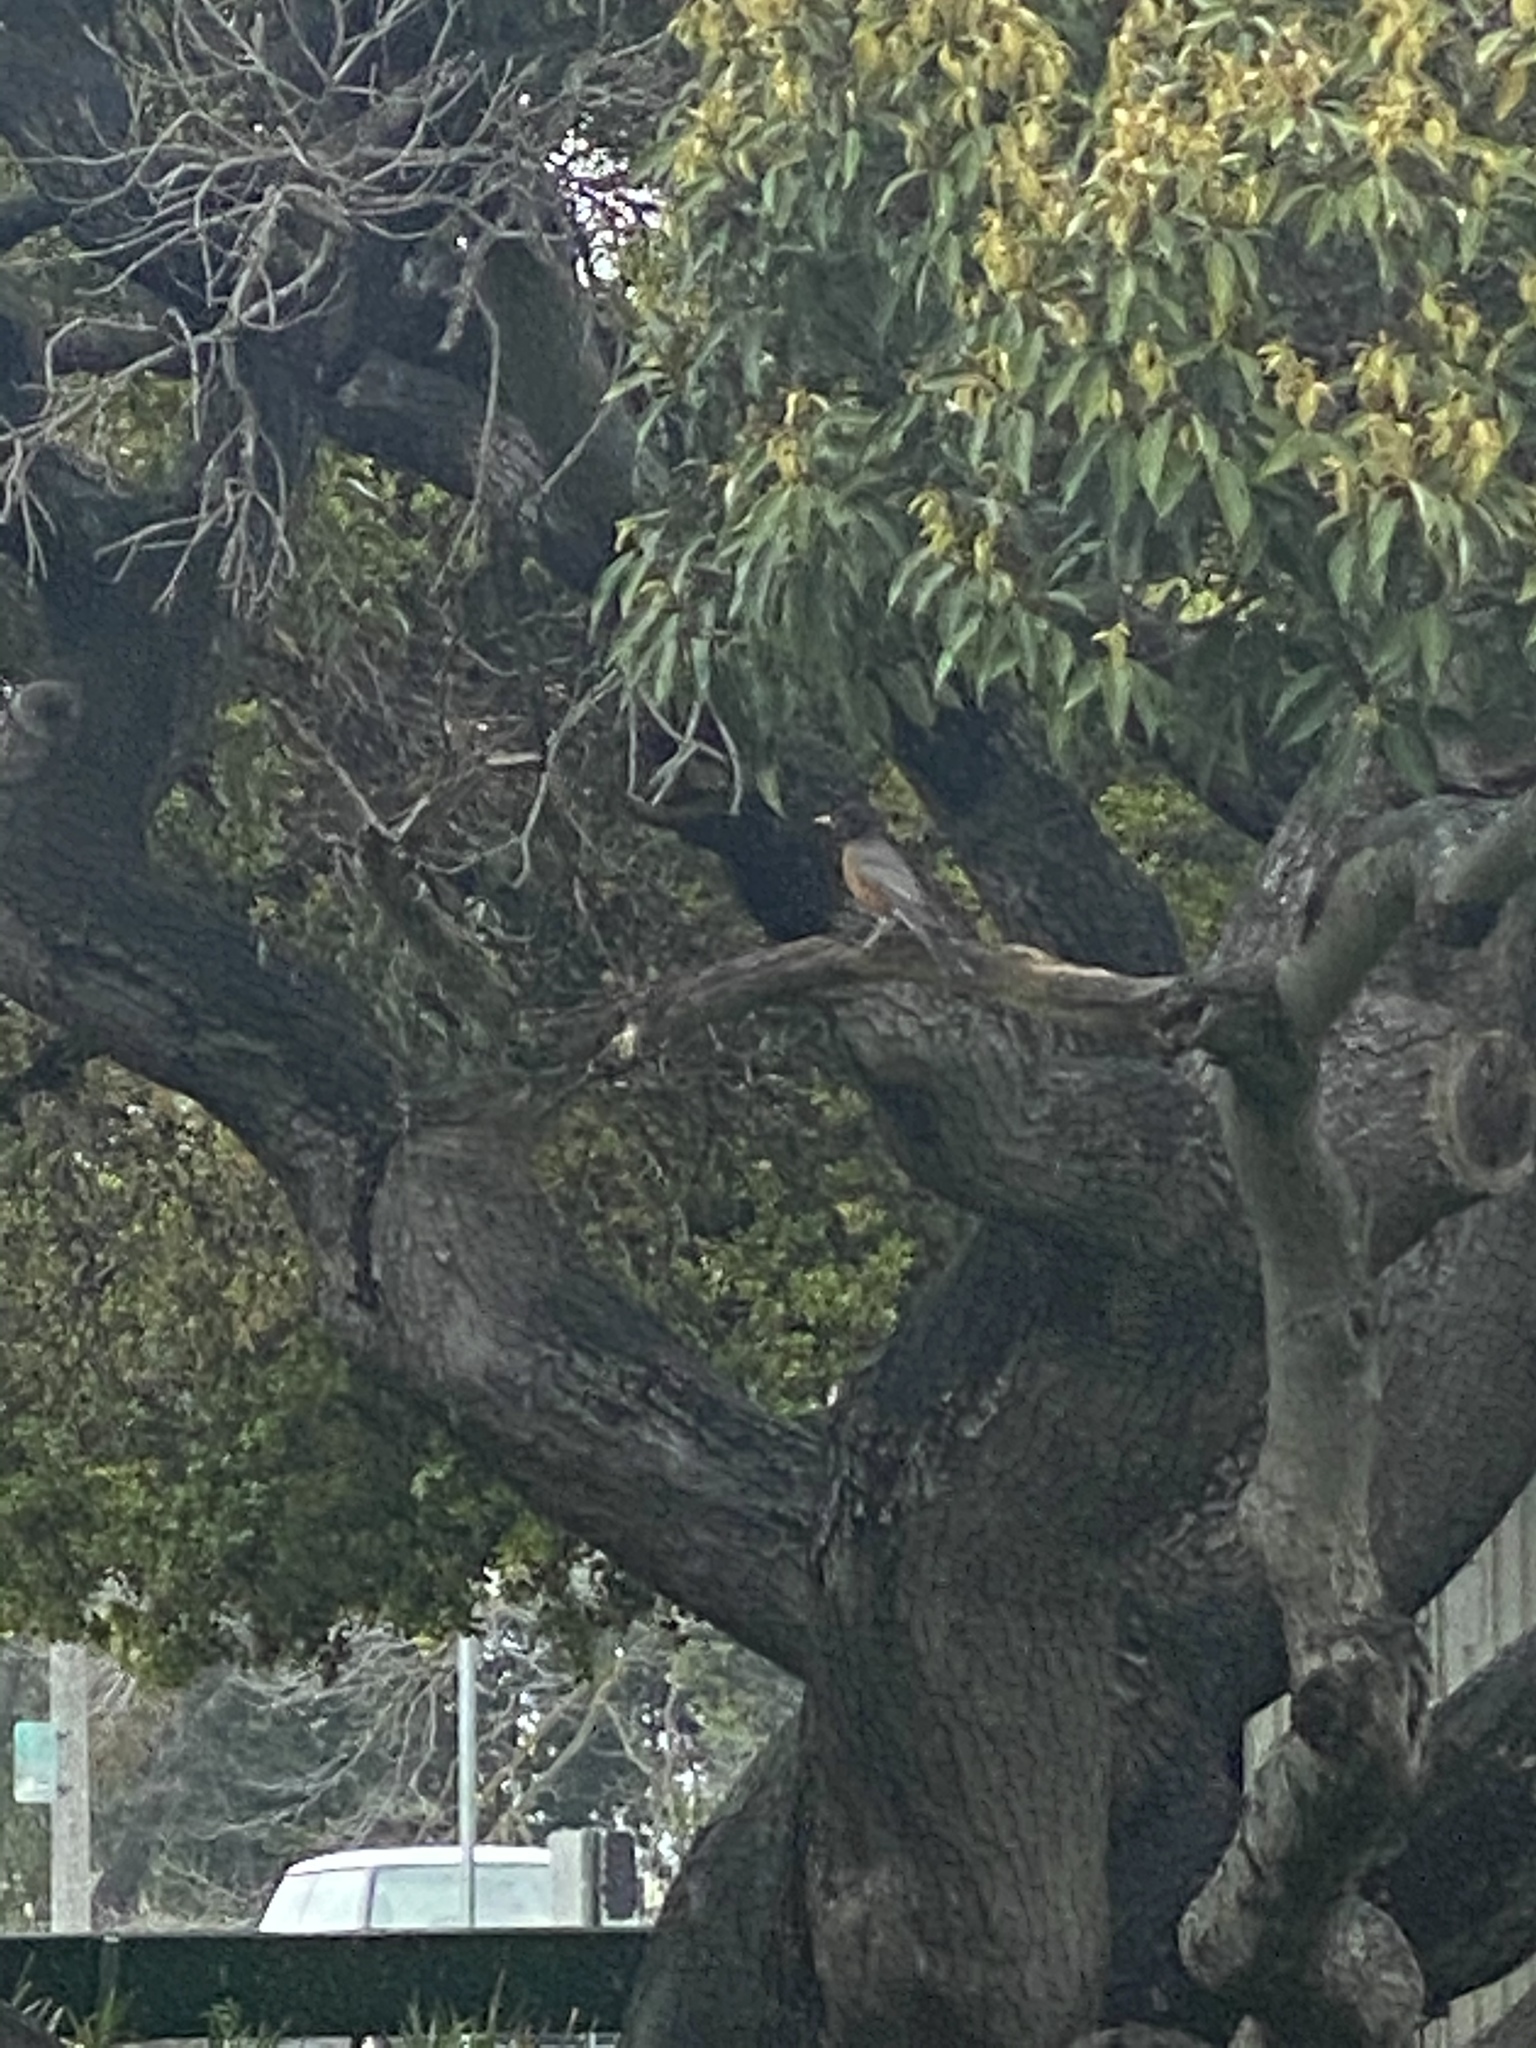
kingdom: Animalia
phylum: Chordata
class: Aves
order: Passeriformes
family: Turdidae
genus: Turdus
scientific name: Turdus migratorius
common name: American robin
